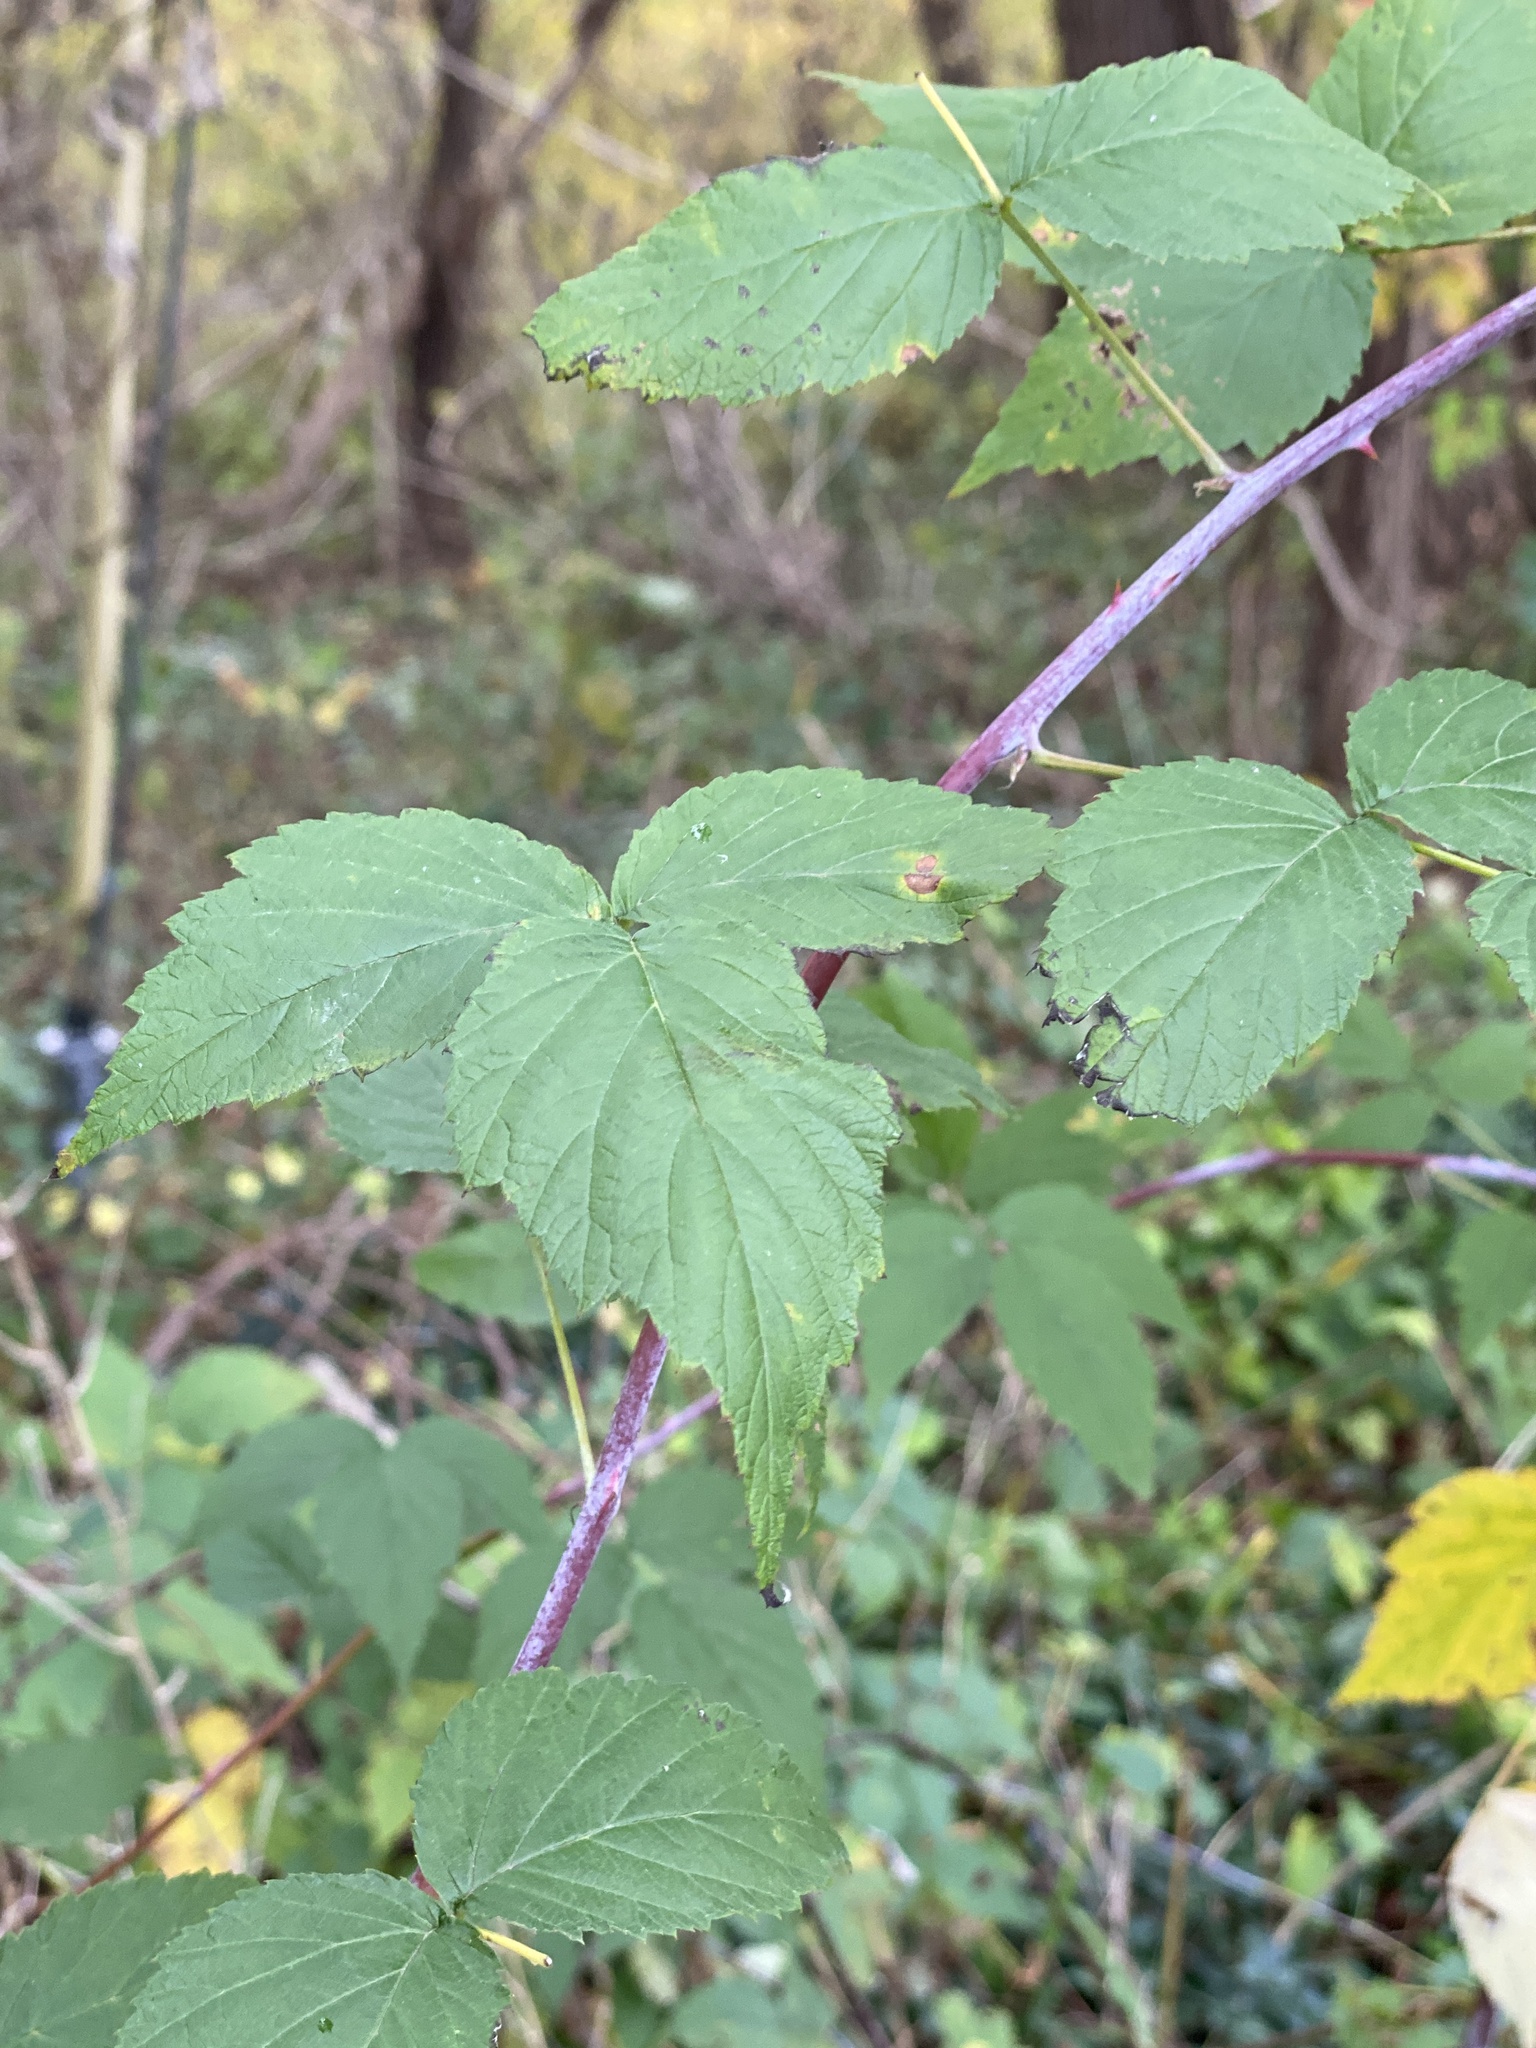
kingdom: Plantae
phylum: Tracheophyta
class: Magnoliopsida
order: Rosales
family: Rosaceae
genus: Rubus
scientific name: Rubus occidentalis
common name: Black raspberry
